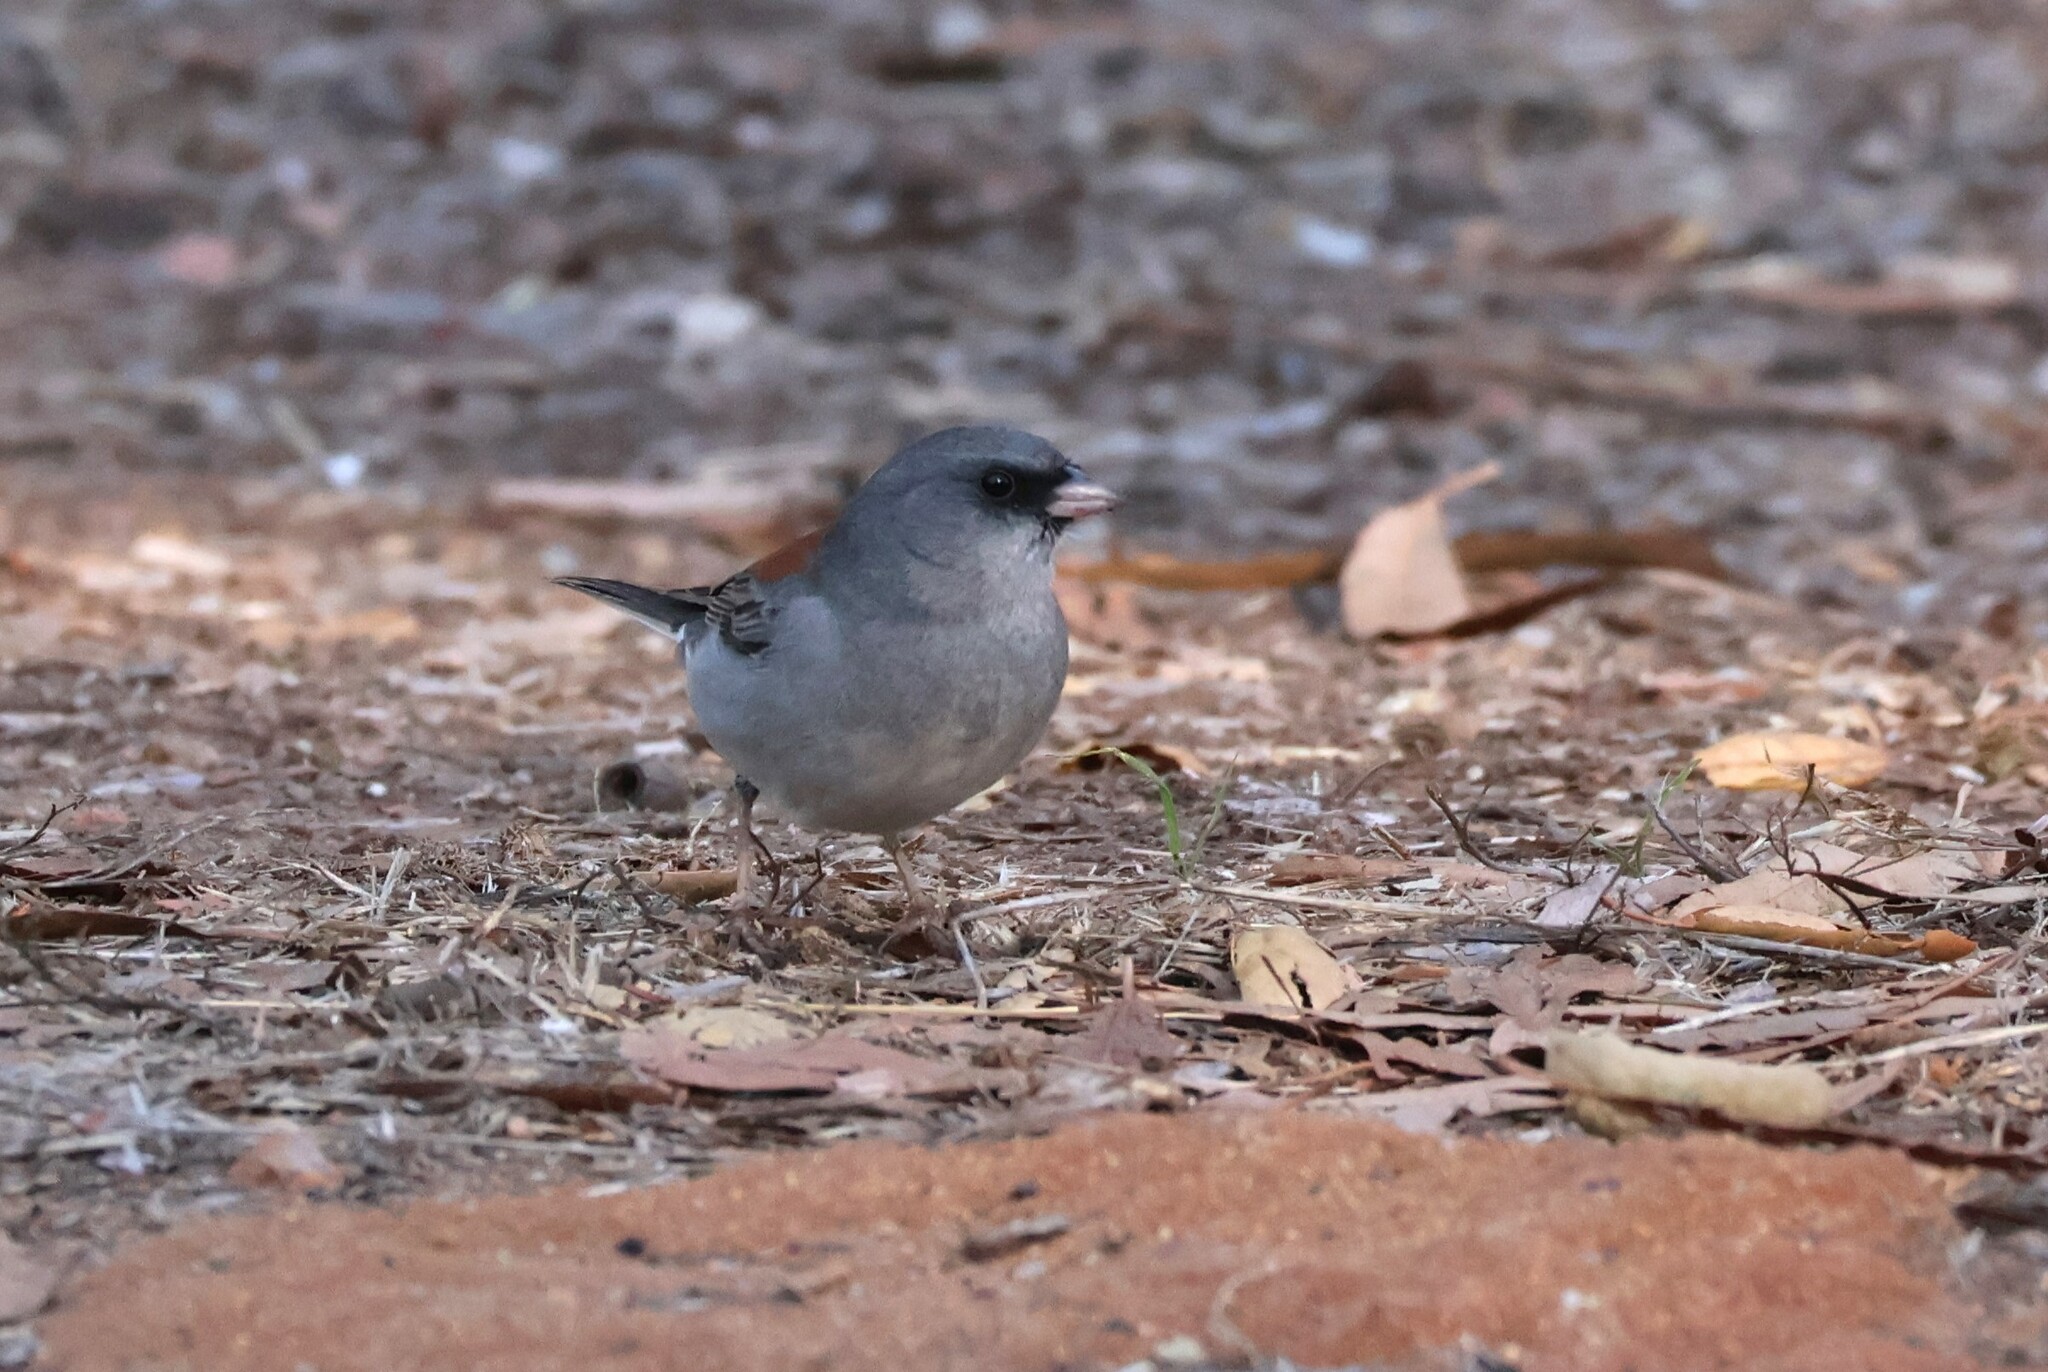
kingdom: Animalia
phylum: Chordata
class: Aves
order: Passeriformes
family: Passerellidae
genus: Junco
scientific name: Junco hyemalis
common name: Dark-eyed junco
